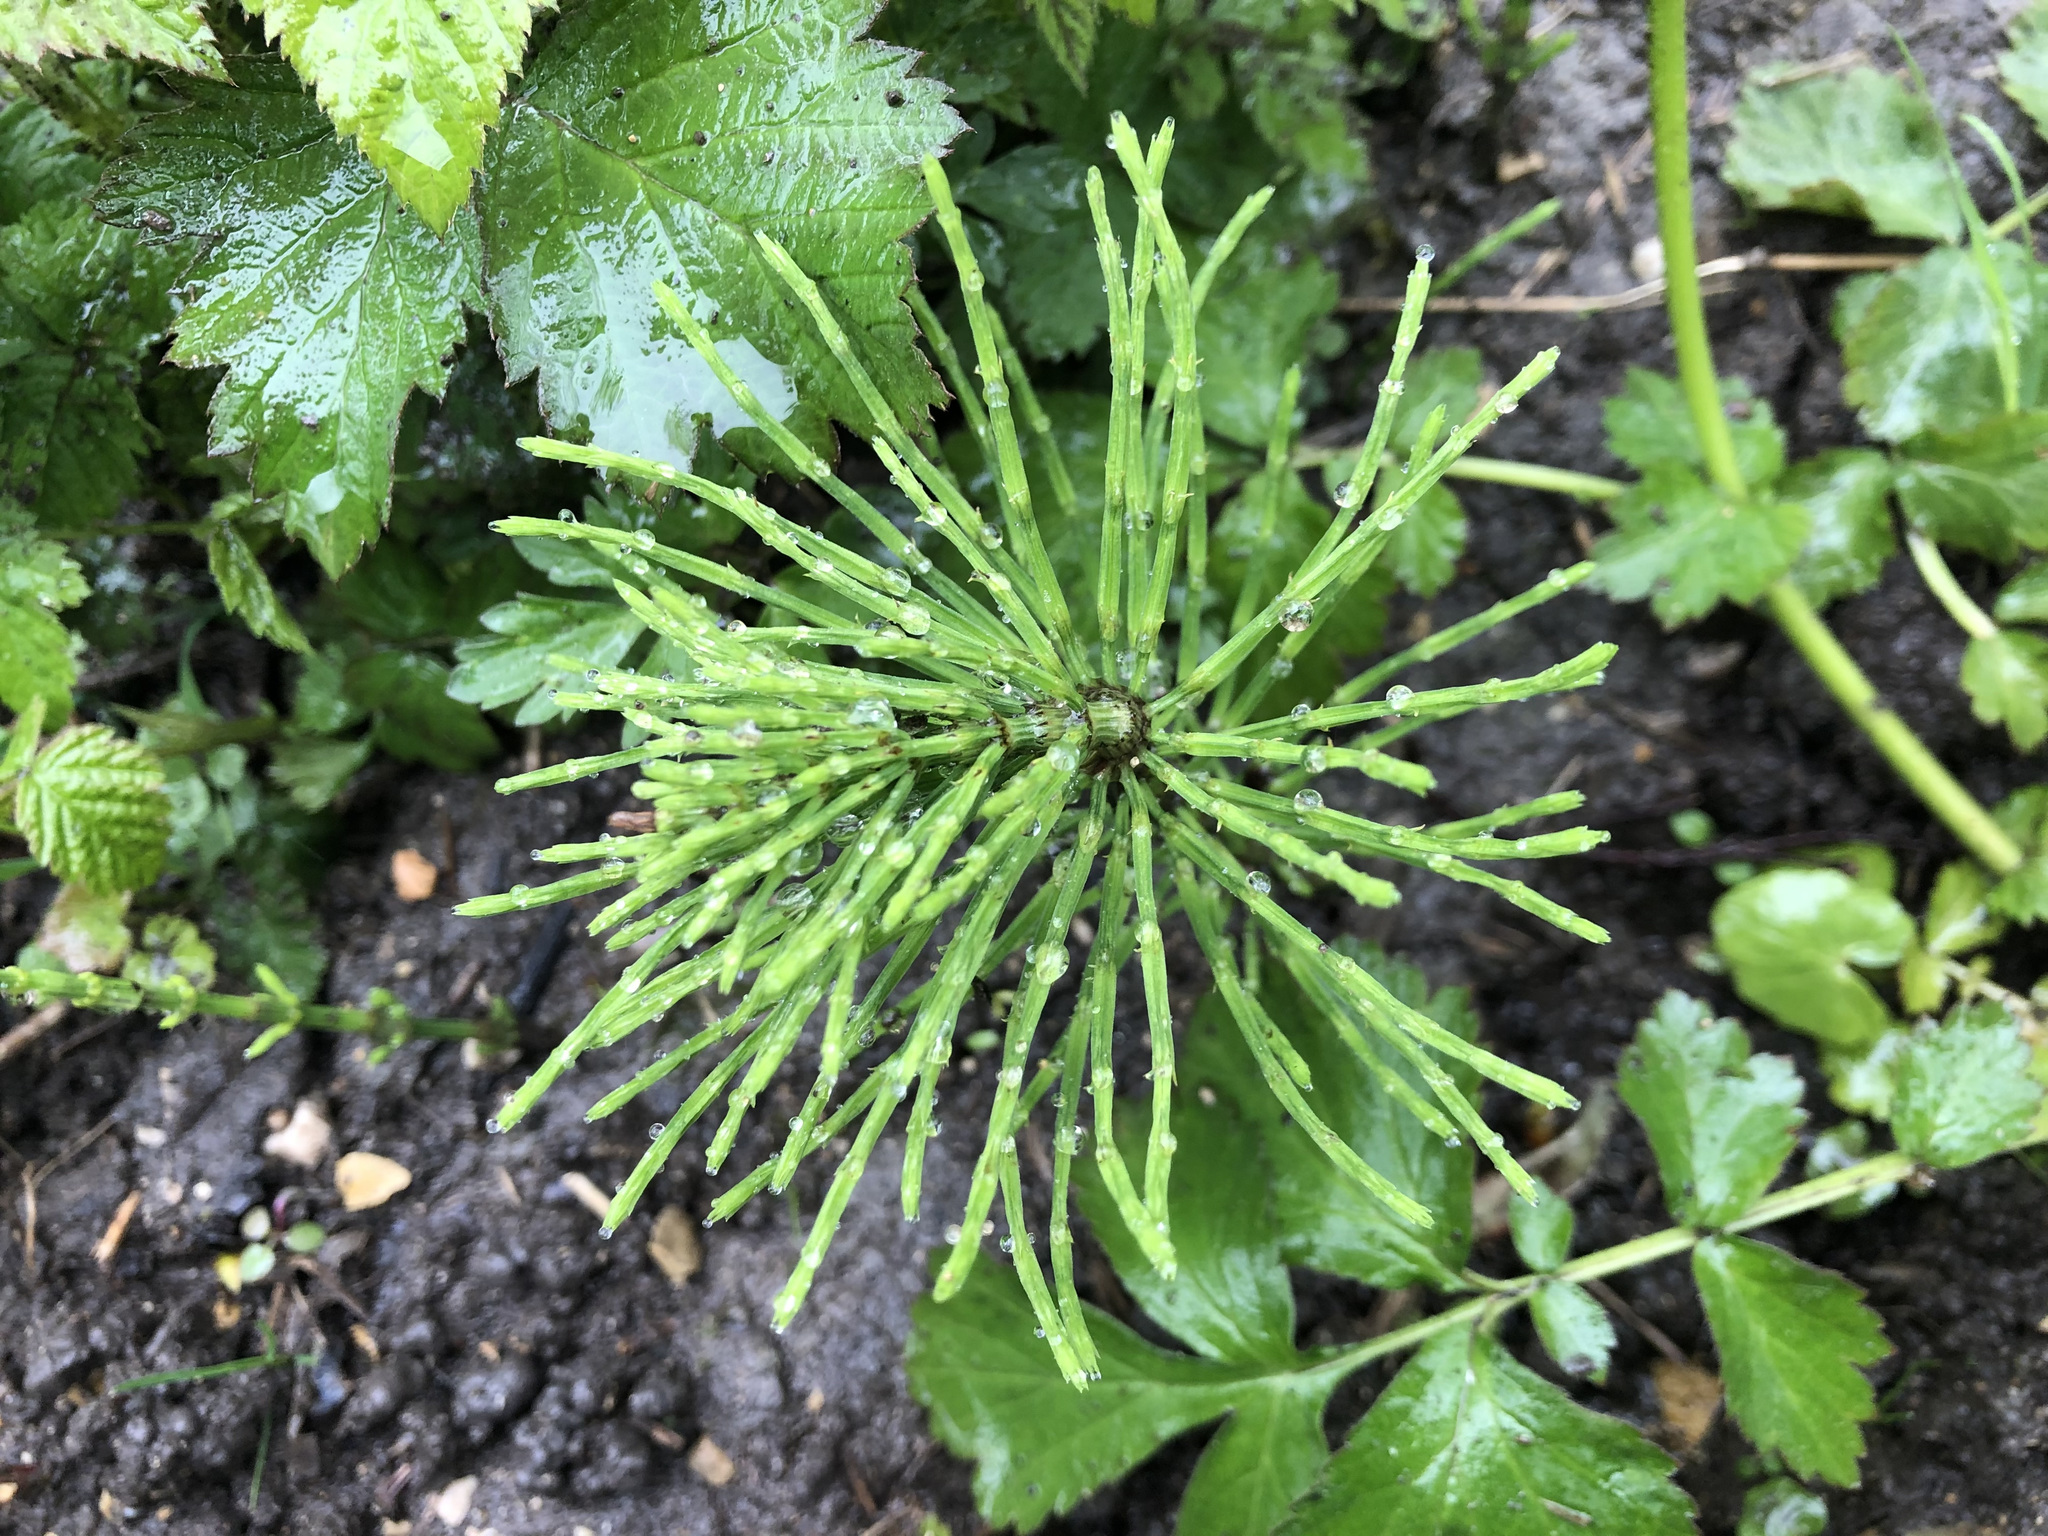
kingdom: Plantae
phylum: Tracheophyta
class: Polypodiopsida
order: Equisetales
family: Equisetaceae
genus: Equisetum
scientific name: Equisetum arvense
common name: Field horsetail
